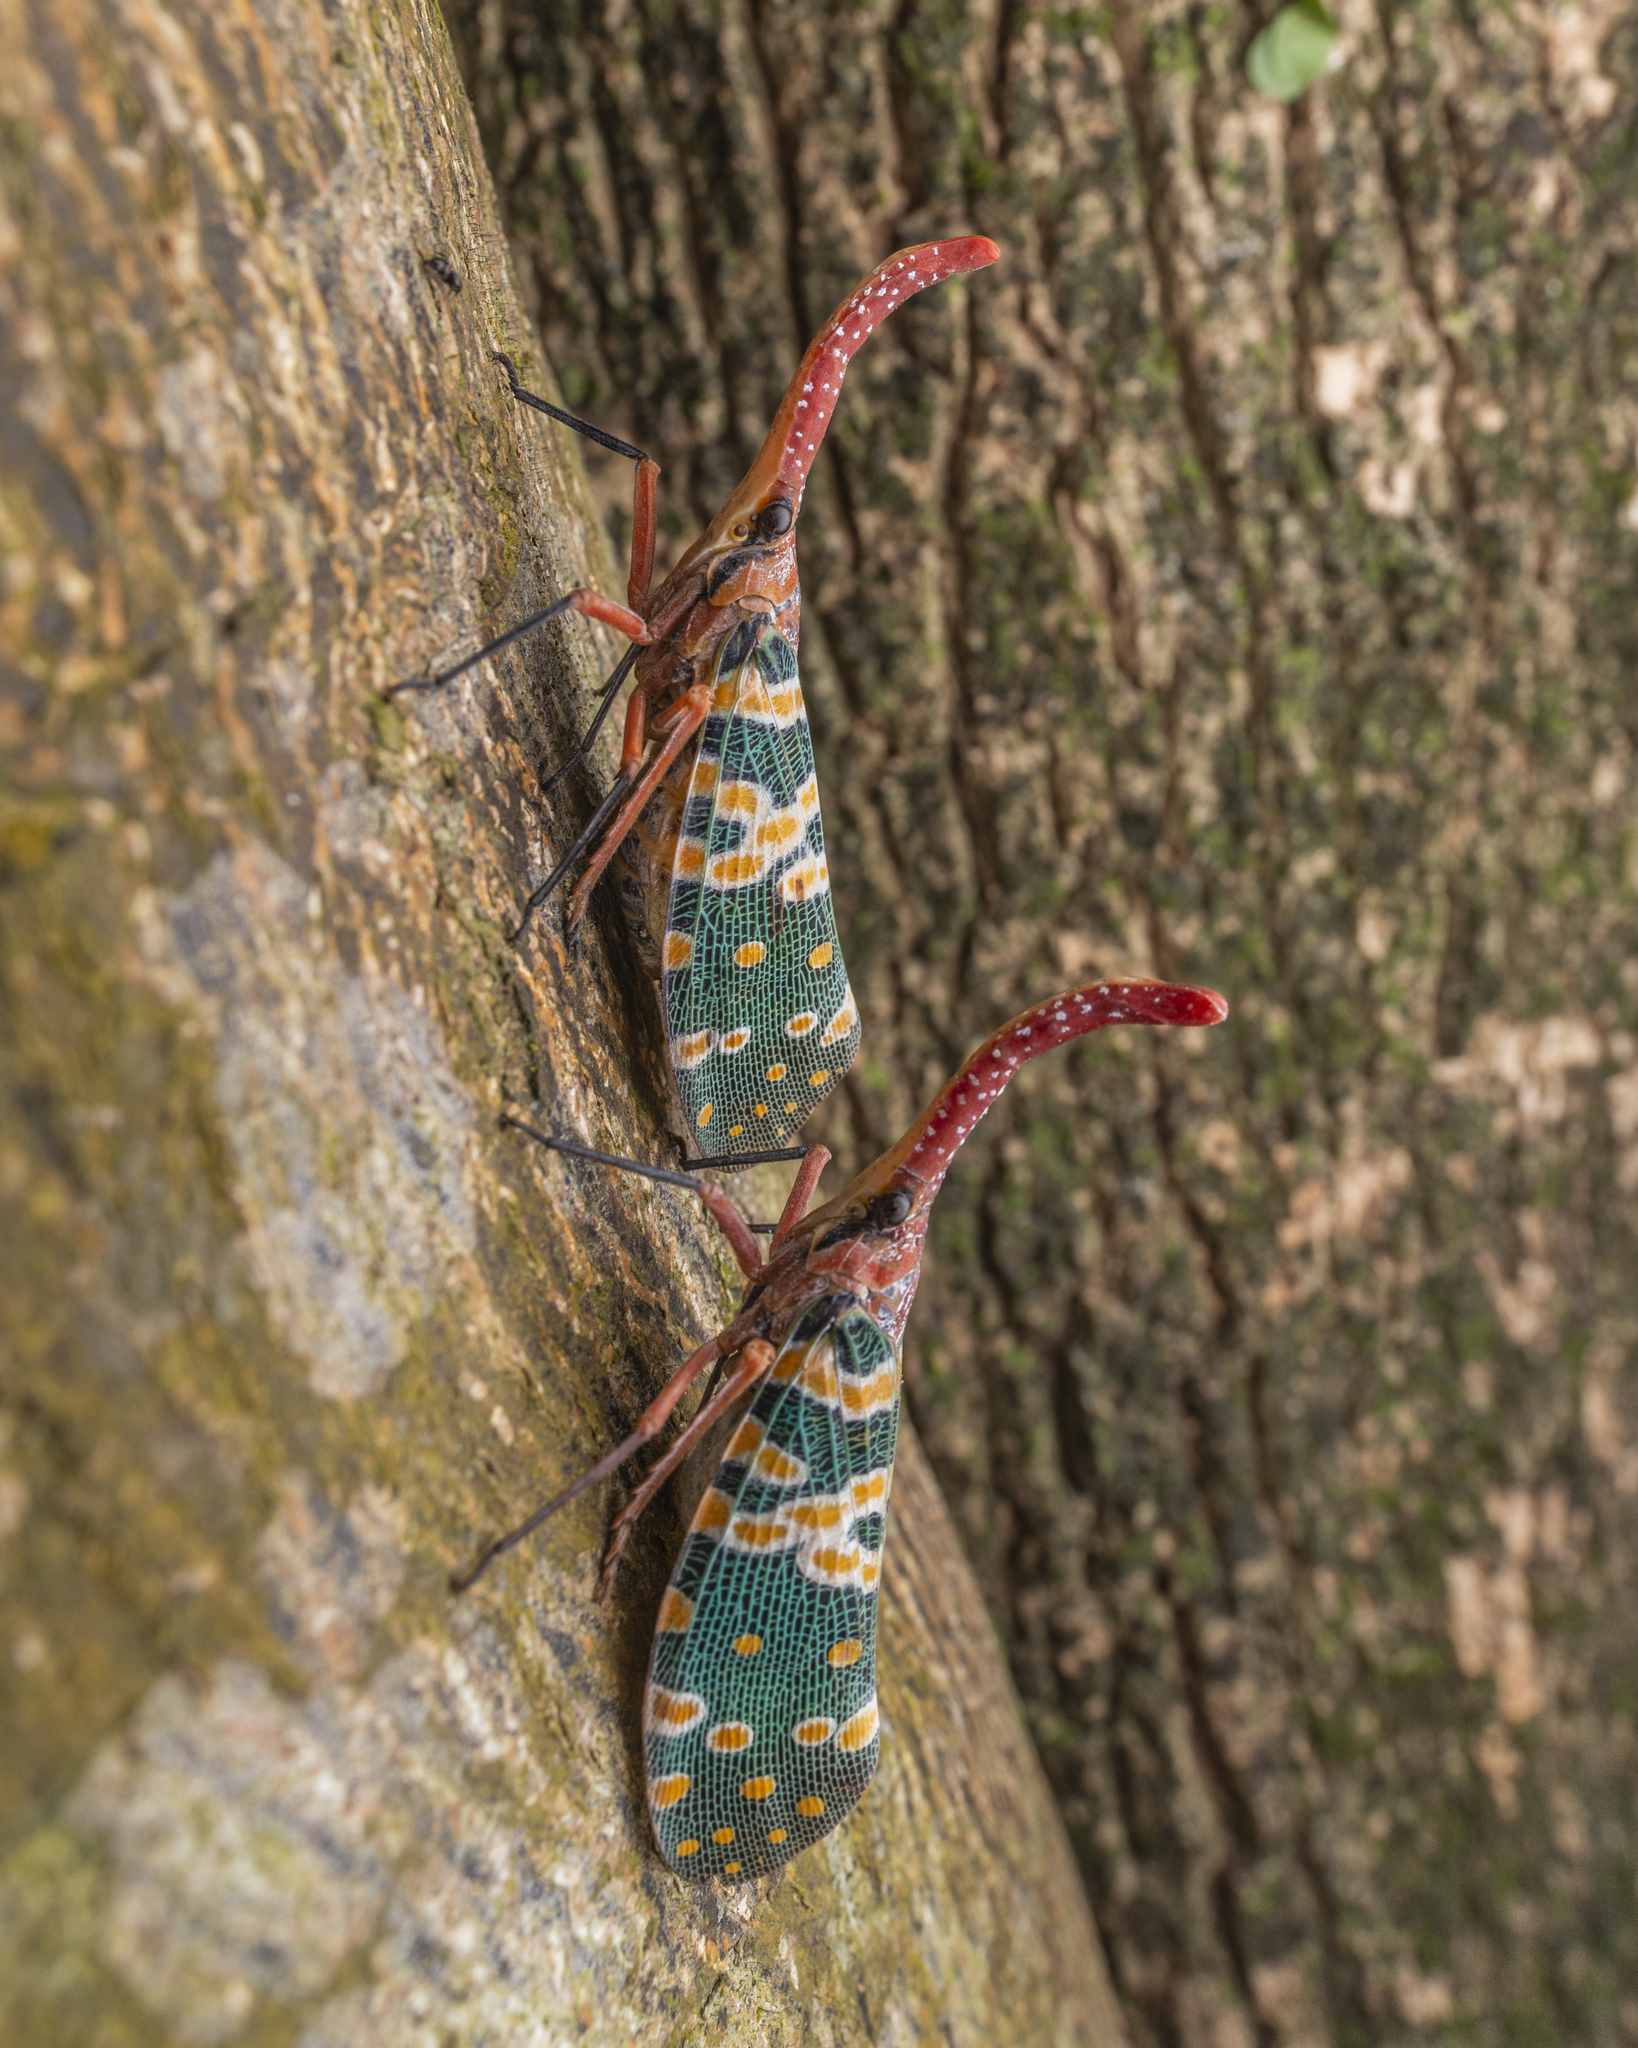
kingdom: Animalia
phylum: Arthropoda
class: Insecta
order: Hemiptera
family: Fulgoridae
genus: Pyrops
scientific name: Pyrops candelaria
